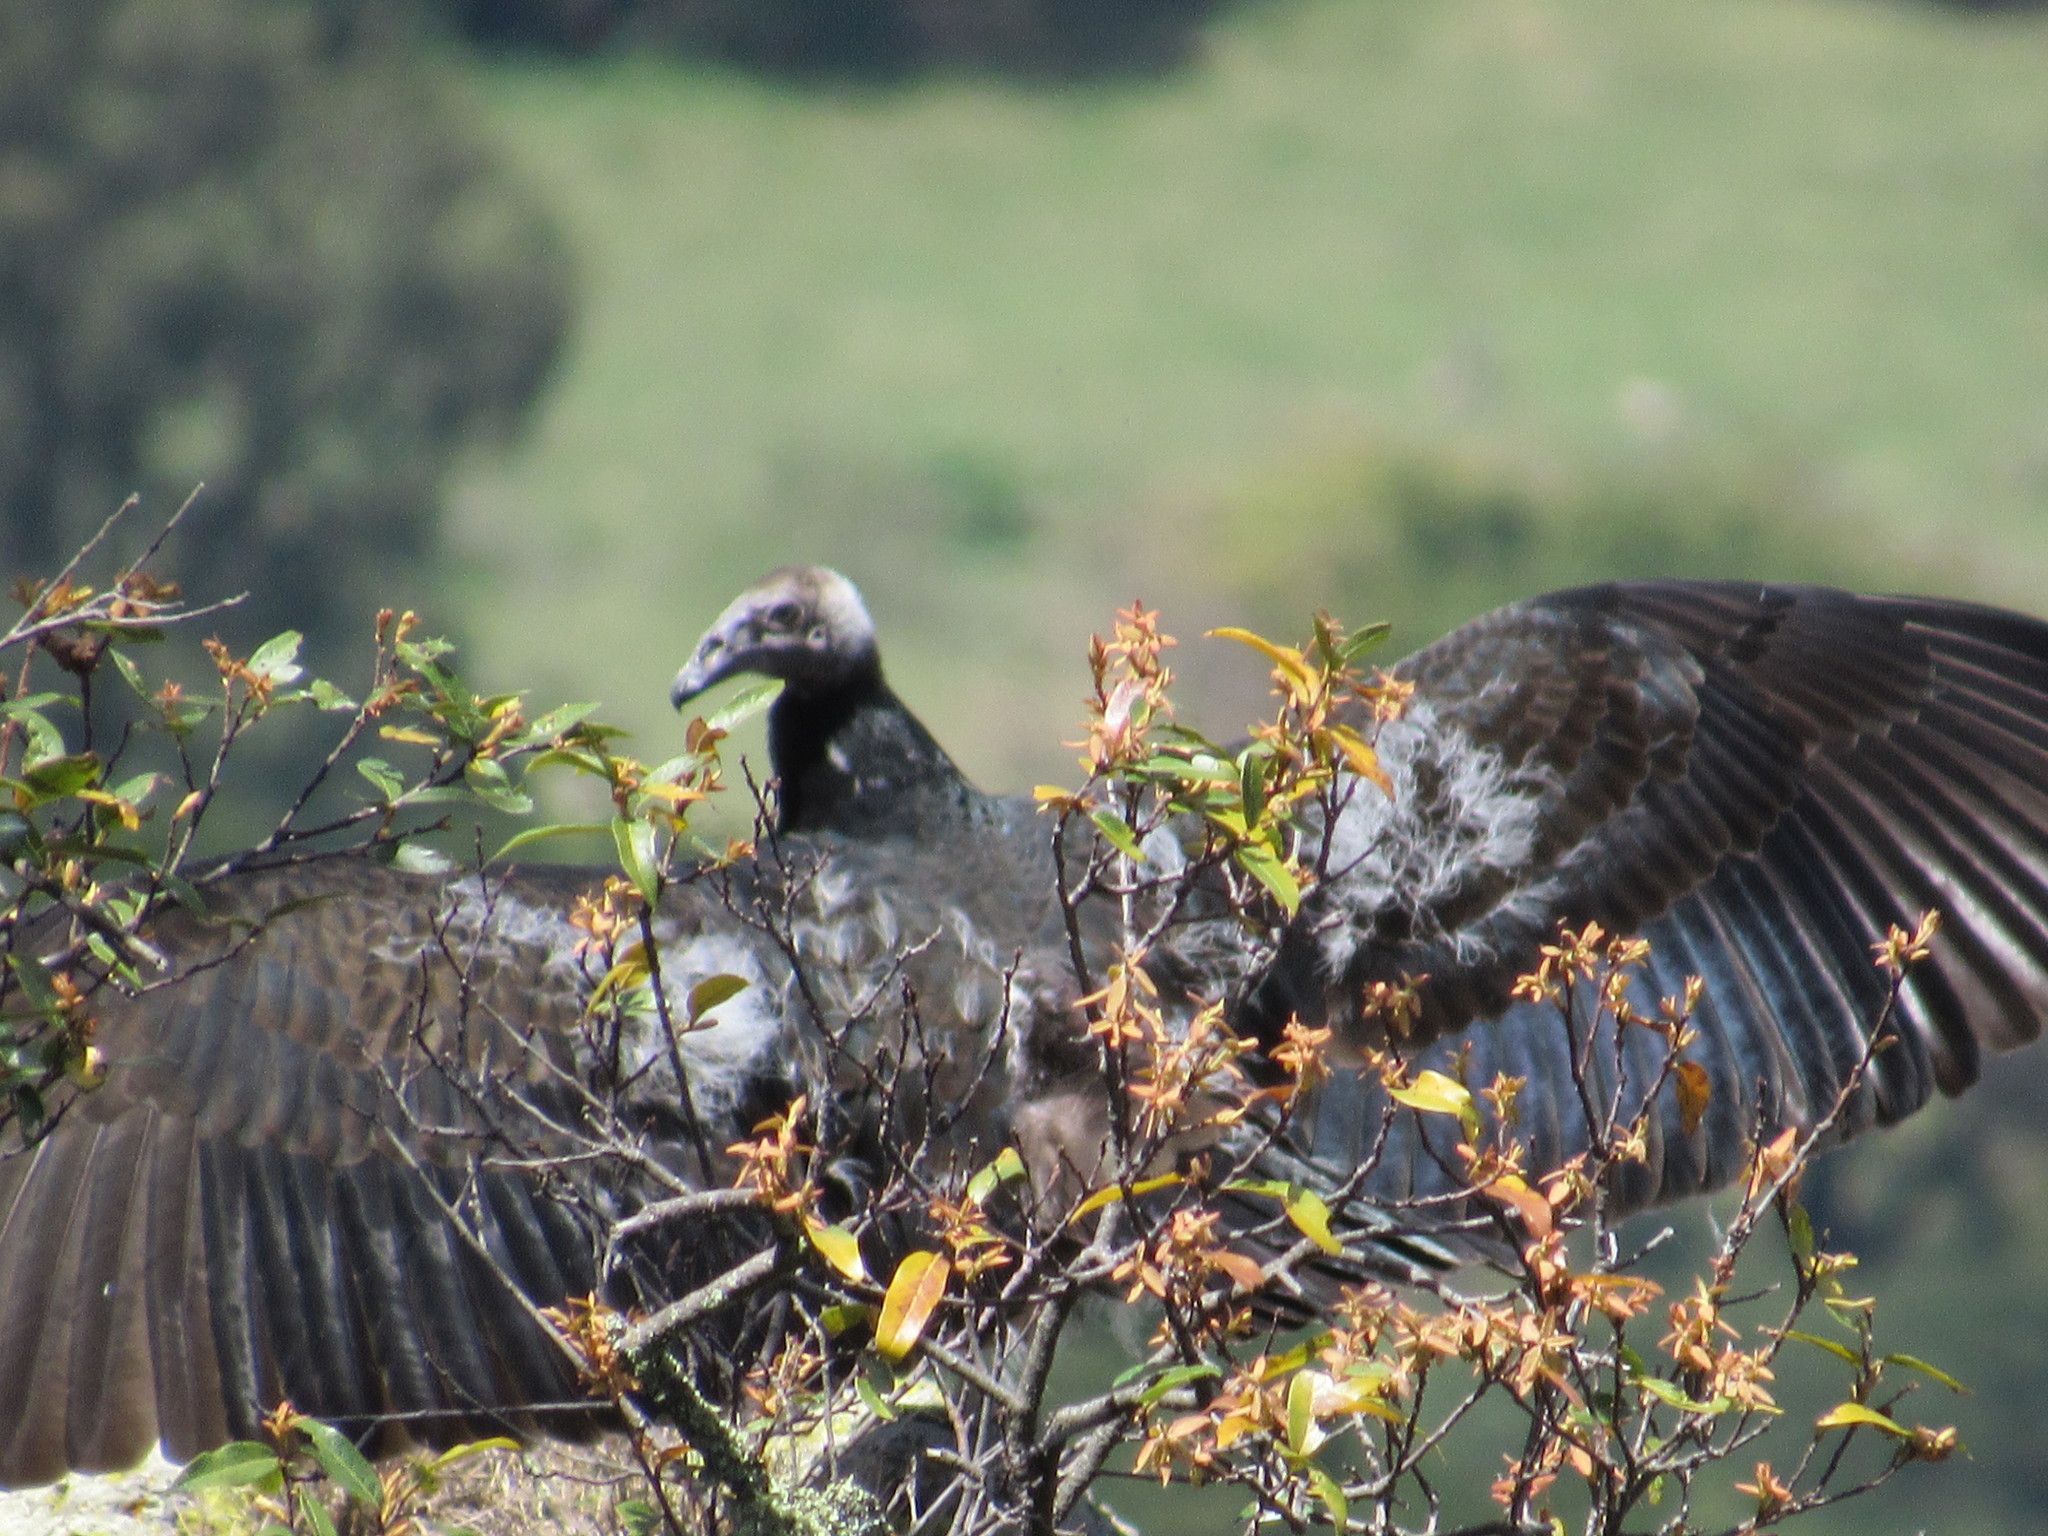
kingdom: Animalia
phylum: Chordata
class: Aves
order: Accipitriformes
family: Cathartidae
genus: Cathartes
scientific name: Cathartes aura
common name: Turkey vulture
